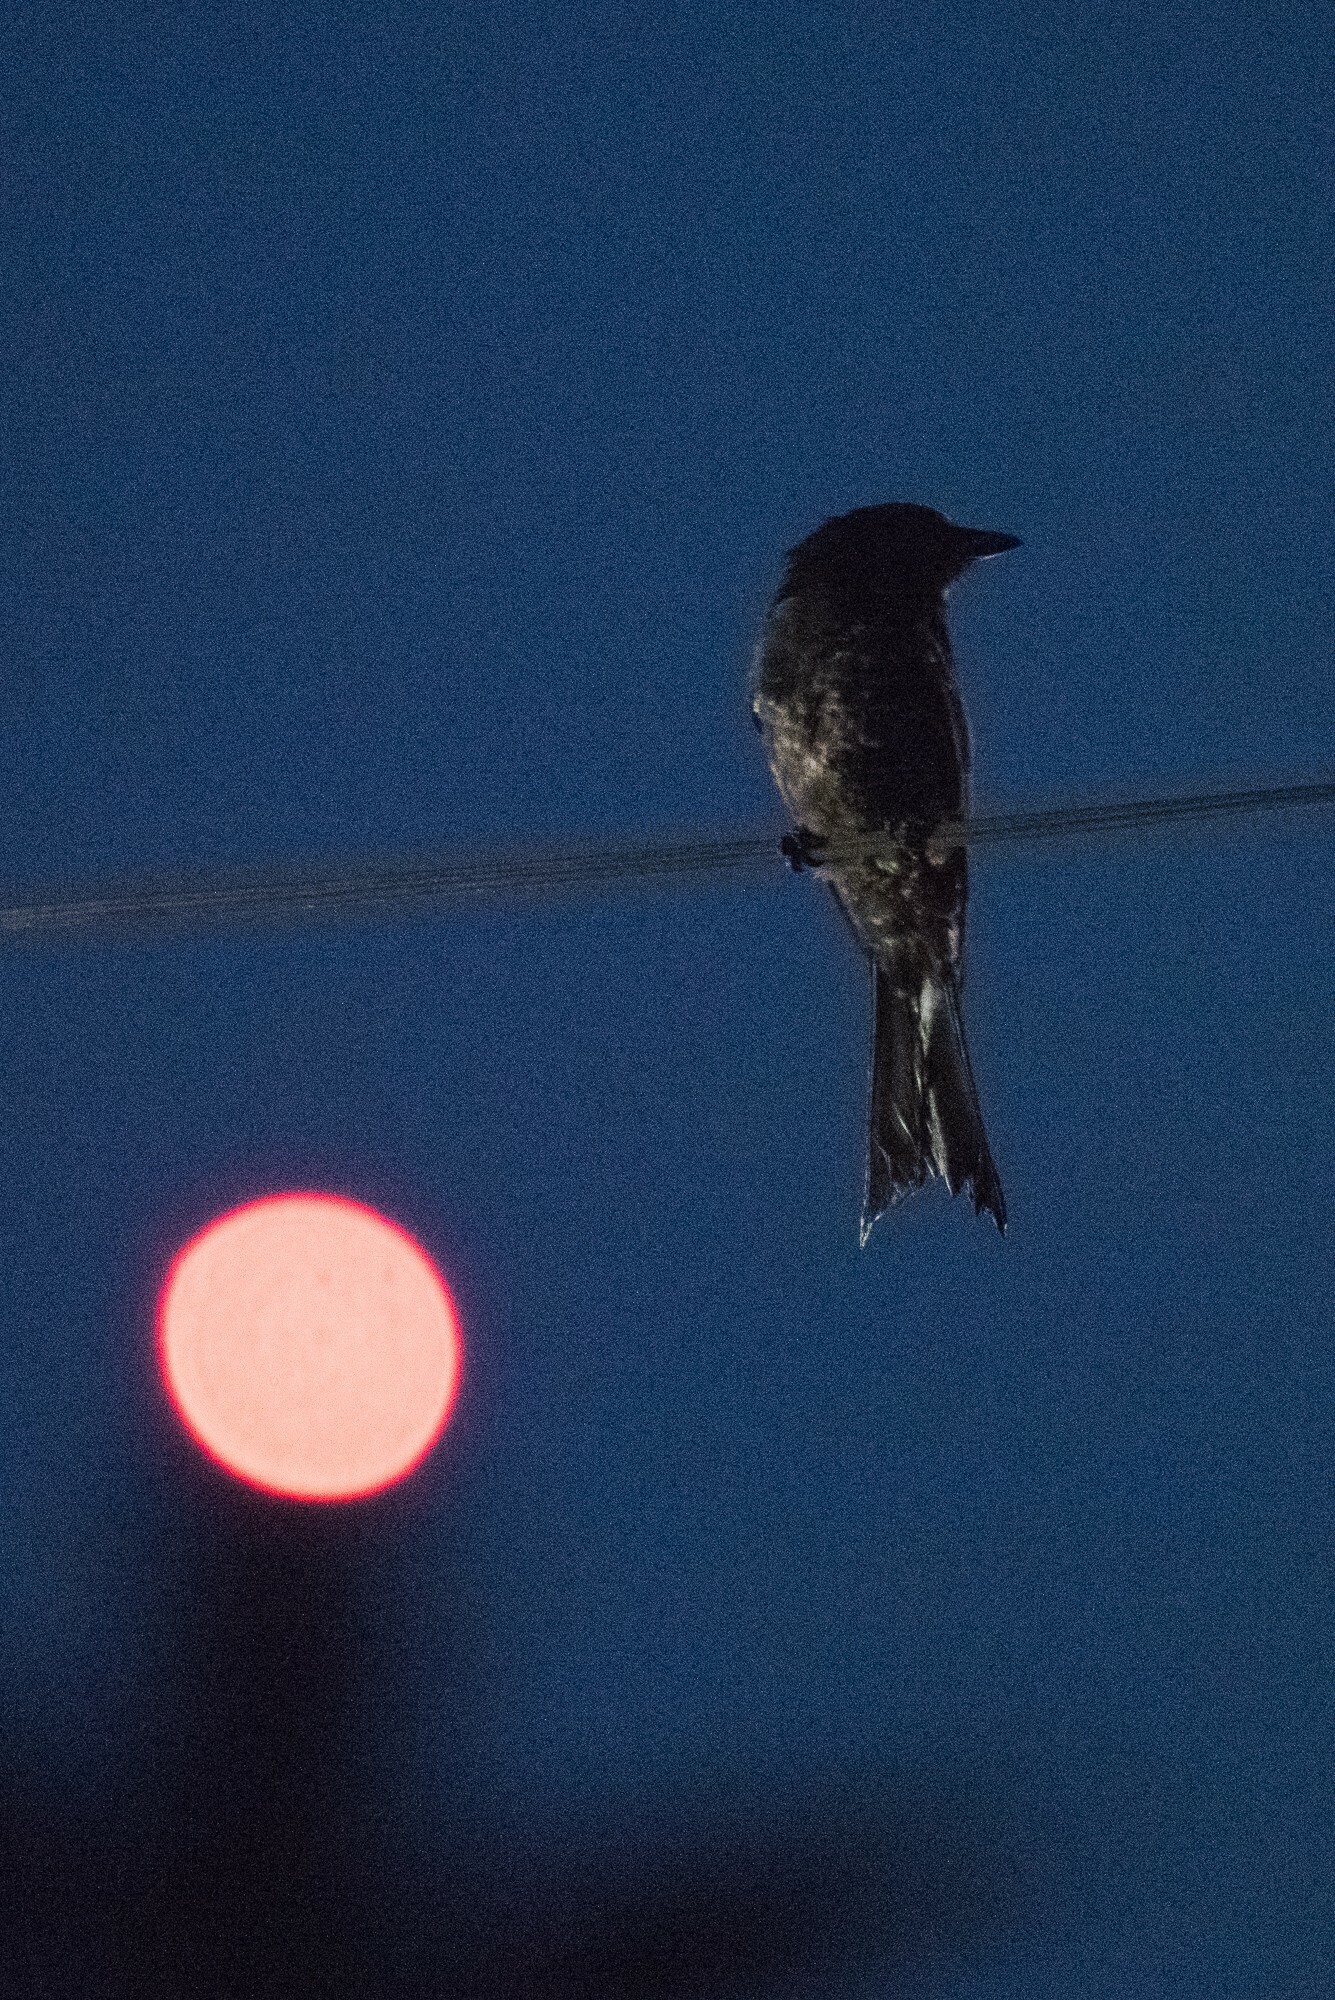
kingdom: Animalia
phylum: Chordata
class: Aves
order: Passeriformes
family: Dicruridae
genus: Dicrurus
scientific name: Dicrurus adsimilis
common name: Fork-tailed drongo
